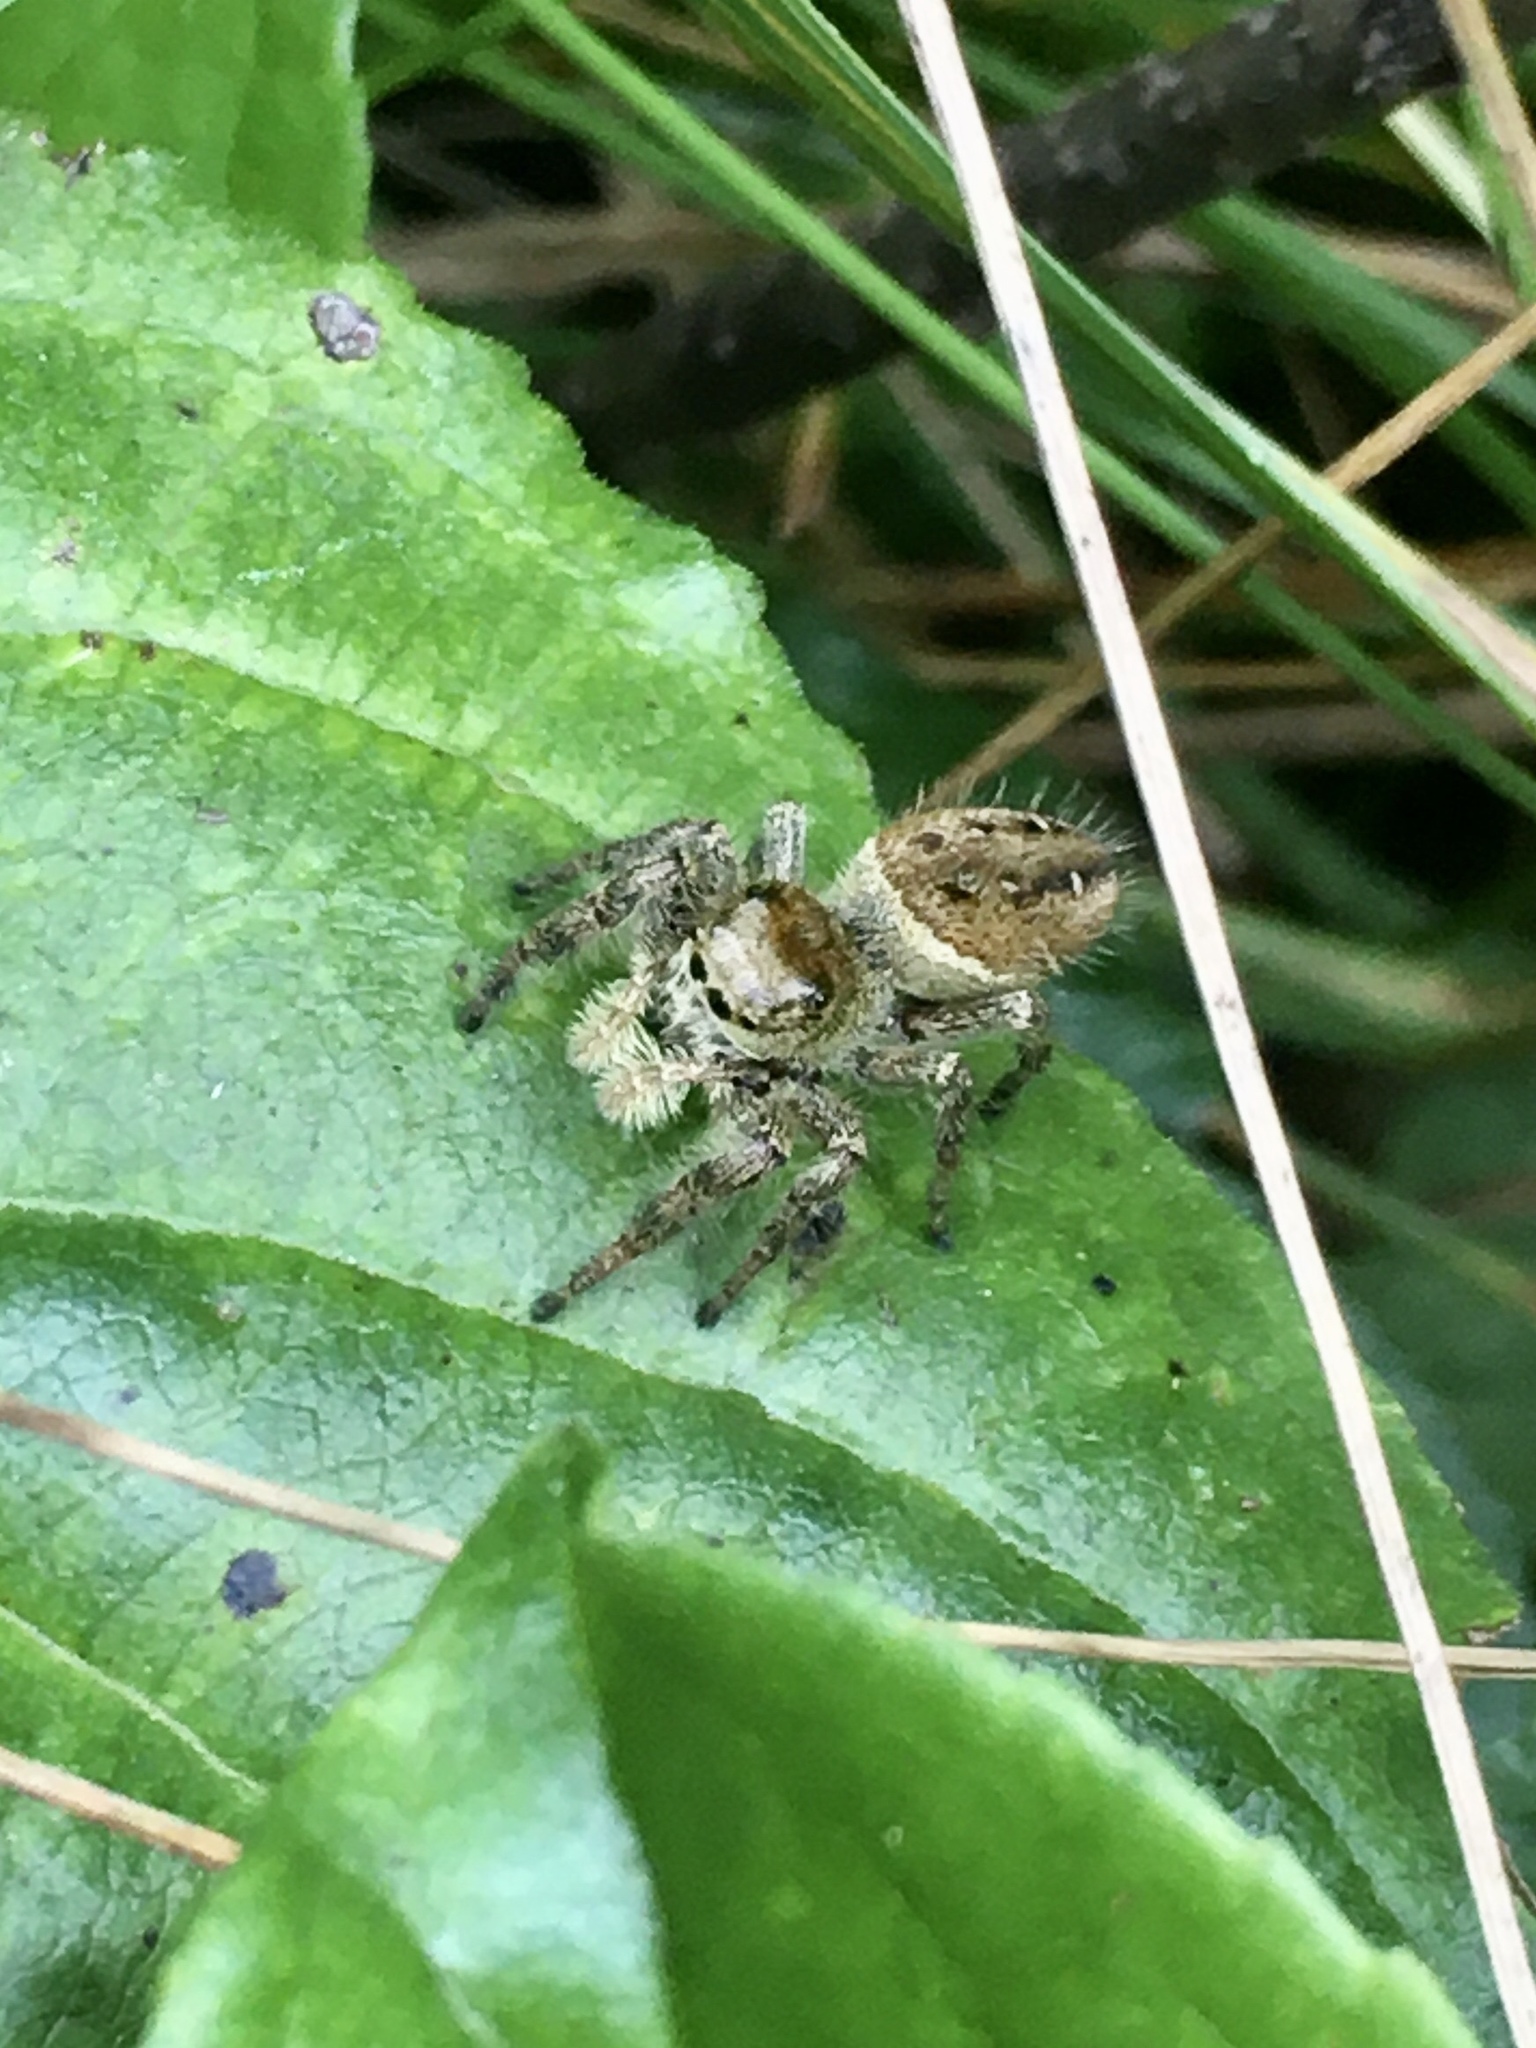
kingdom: Animalia
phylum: Arthropoda
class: Arachnida
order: Araneae
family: Salticidae
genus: Phidippus
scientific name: Phidippus clarus
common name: Brilliant jumping spider
